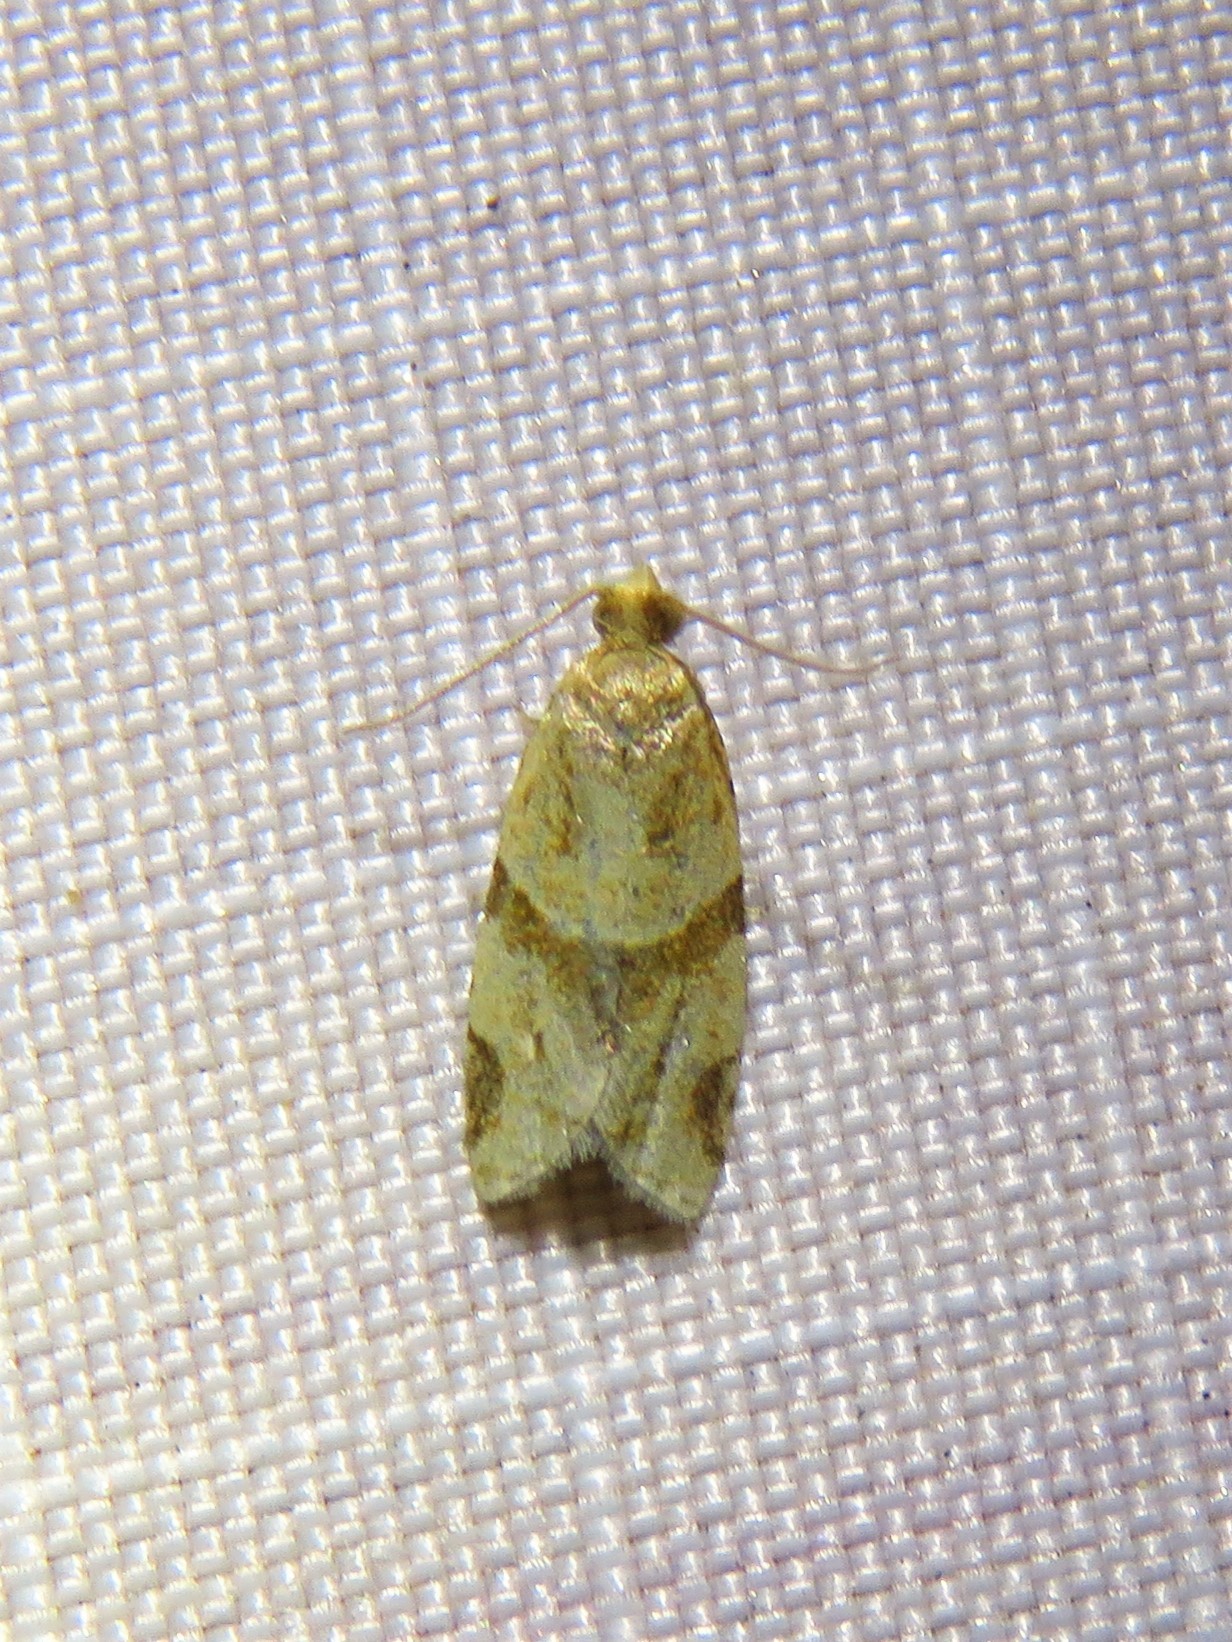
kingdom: Animalia
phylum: Arthropoda
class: Insecta
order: Lepidoptera
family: Tortricidae
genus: Clepsis
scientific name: Clepsis peritana
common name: Garden tortrix
